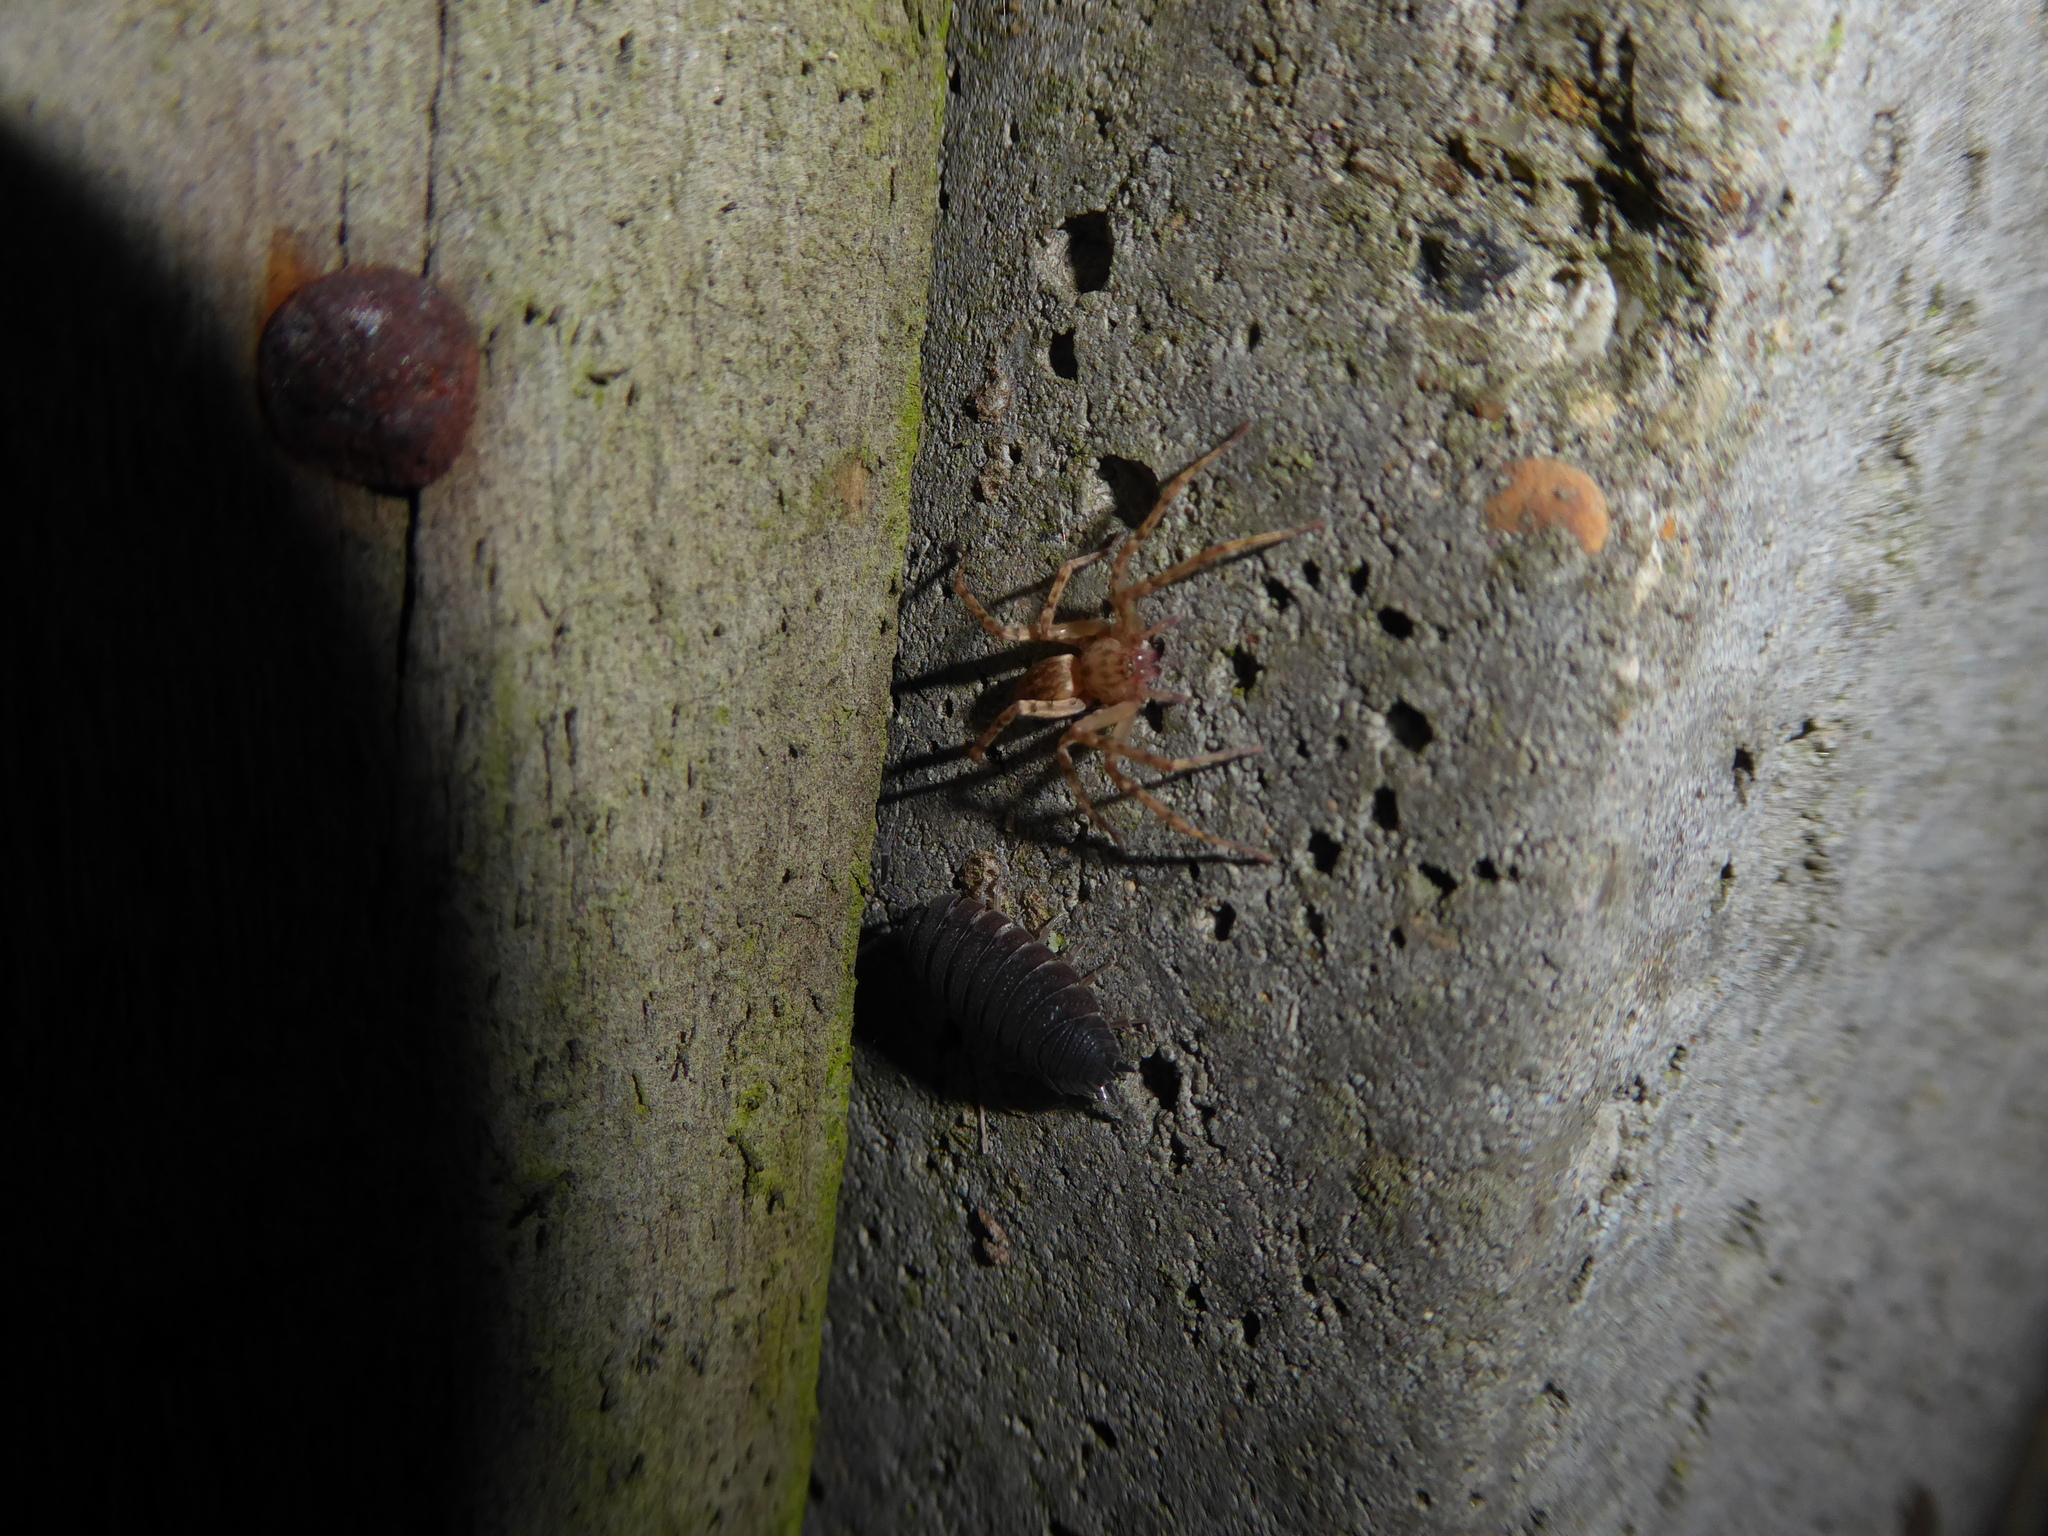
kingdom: Animalia
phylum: Arthropoda
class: Malacostraca
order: Isopoda
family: Porcellionidae
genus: Porcellio
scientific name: Porcellio scaber
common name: Common rough woodlouse
